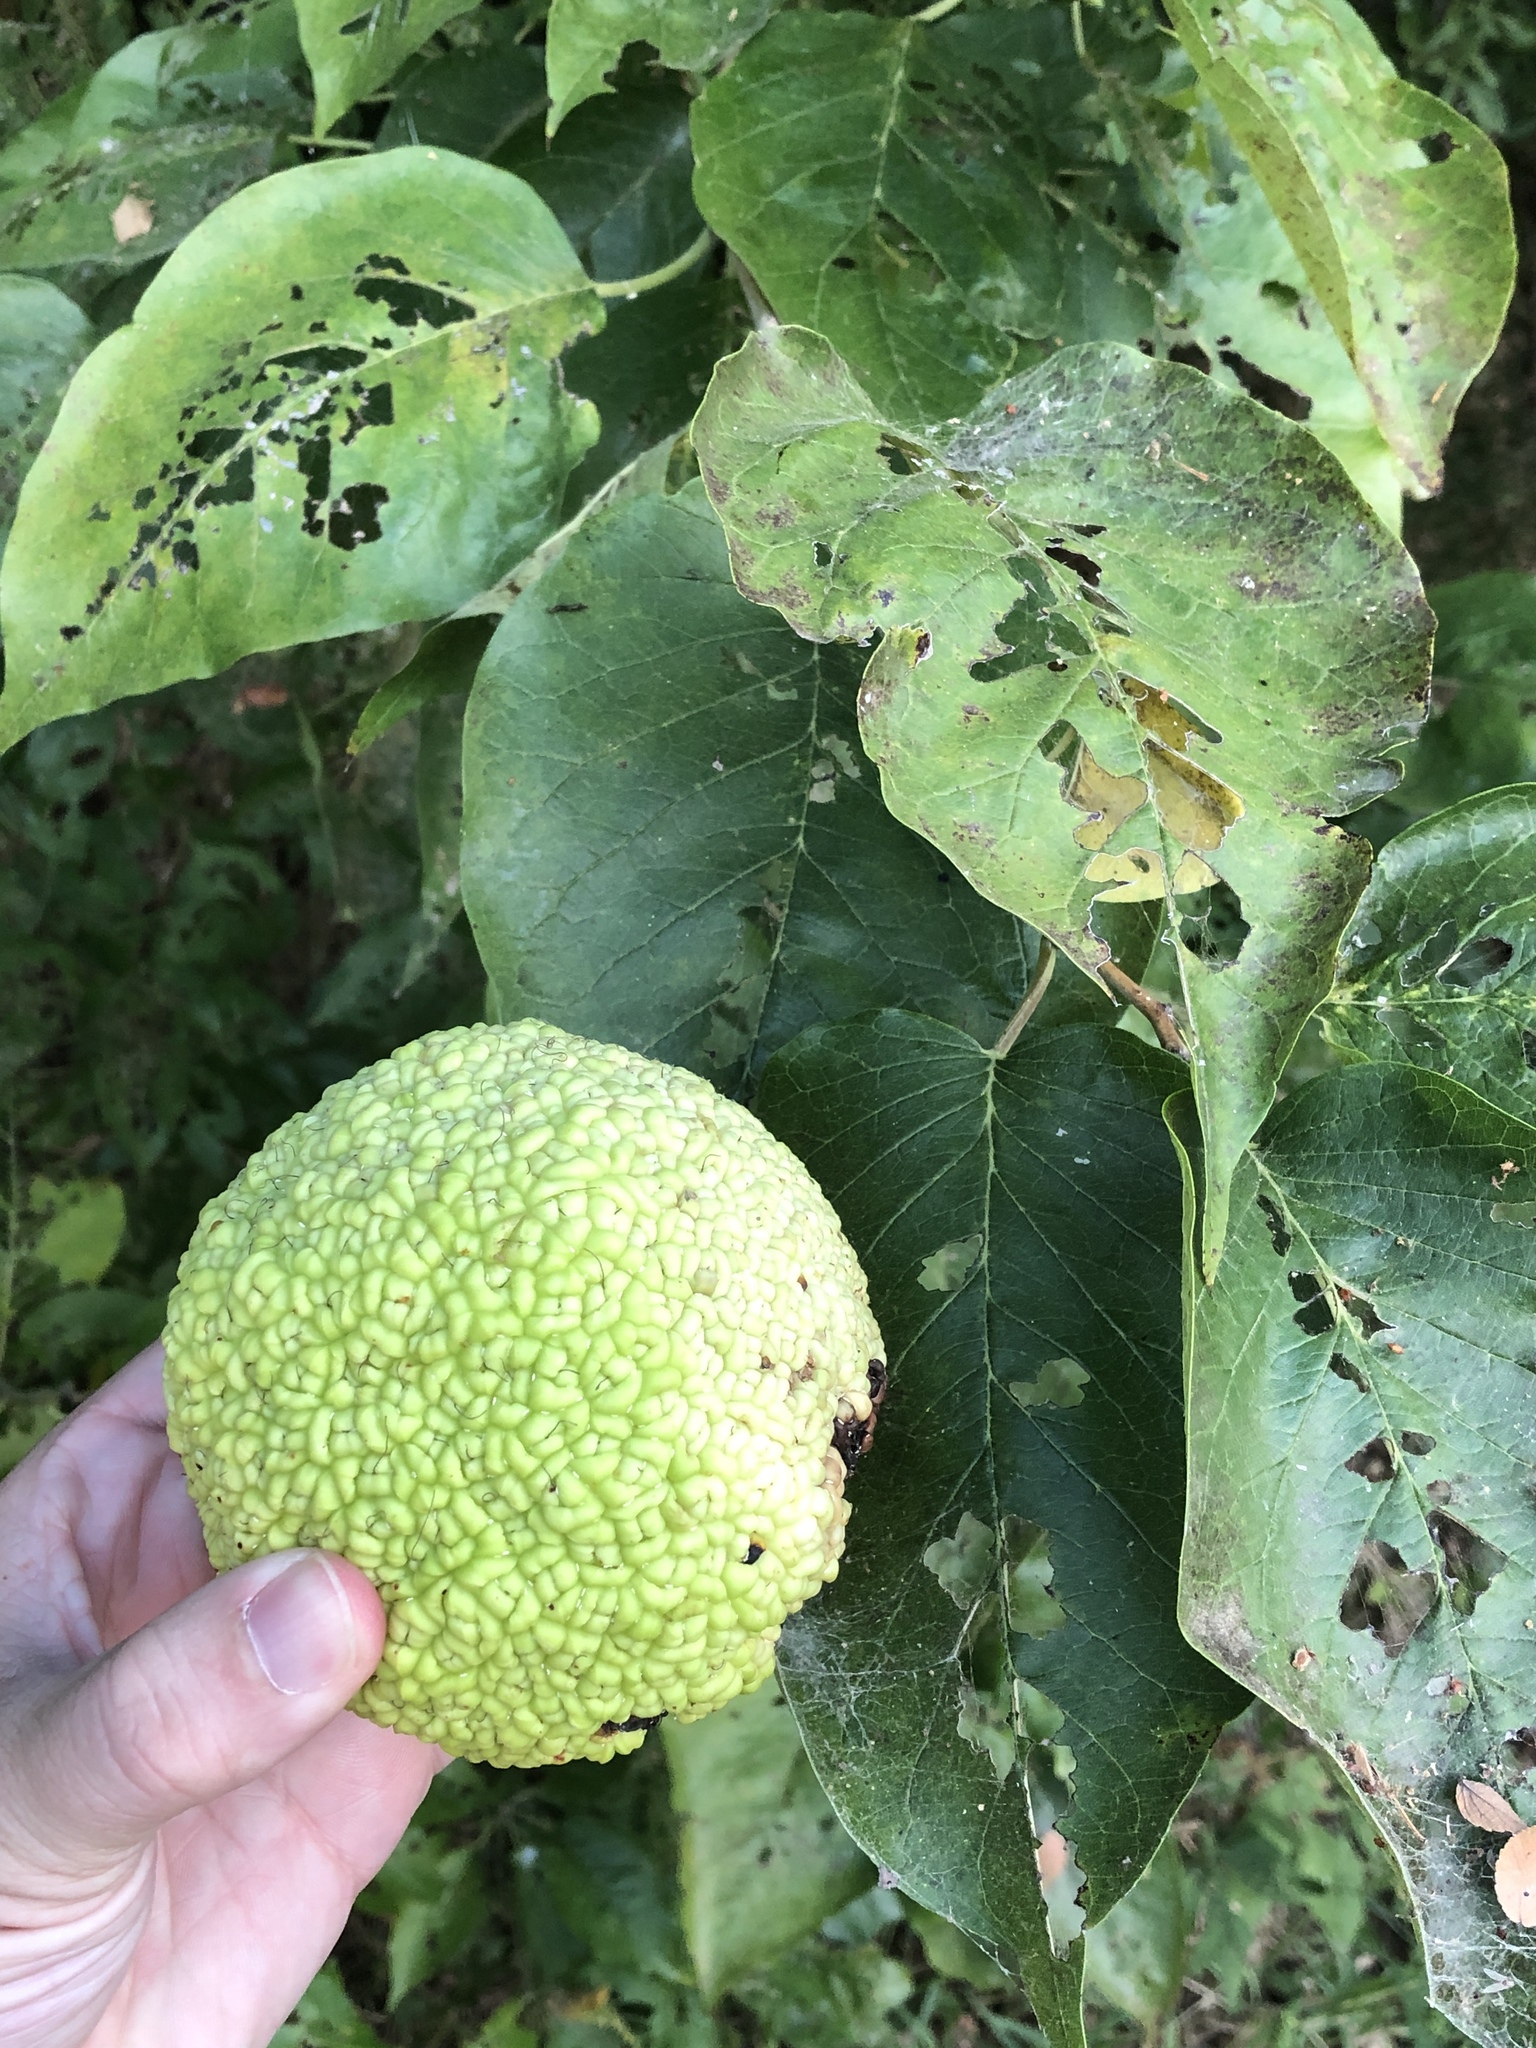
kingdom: Plantae
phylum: Tracheophyta
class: Magnoliopsida
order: Rosales
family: Moraceae
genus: Maclura
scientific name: Maclura pomifera
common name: Osage-orange
